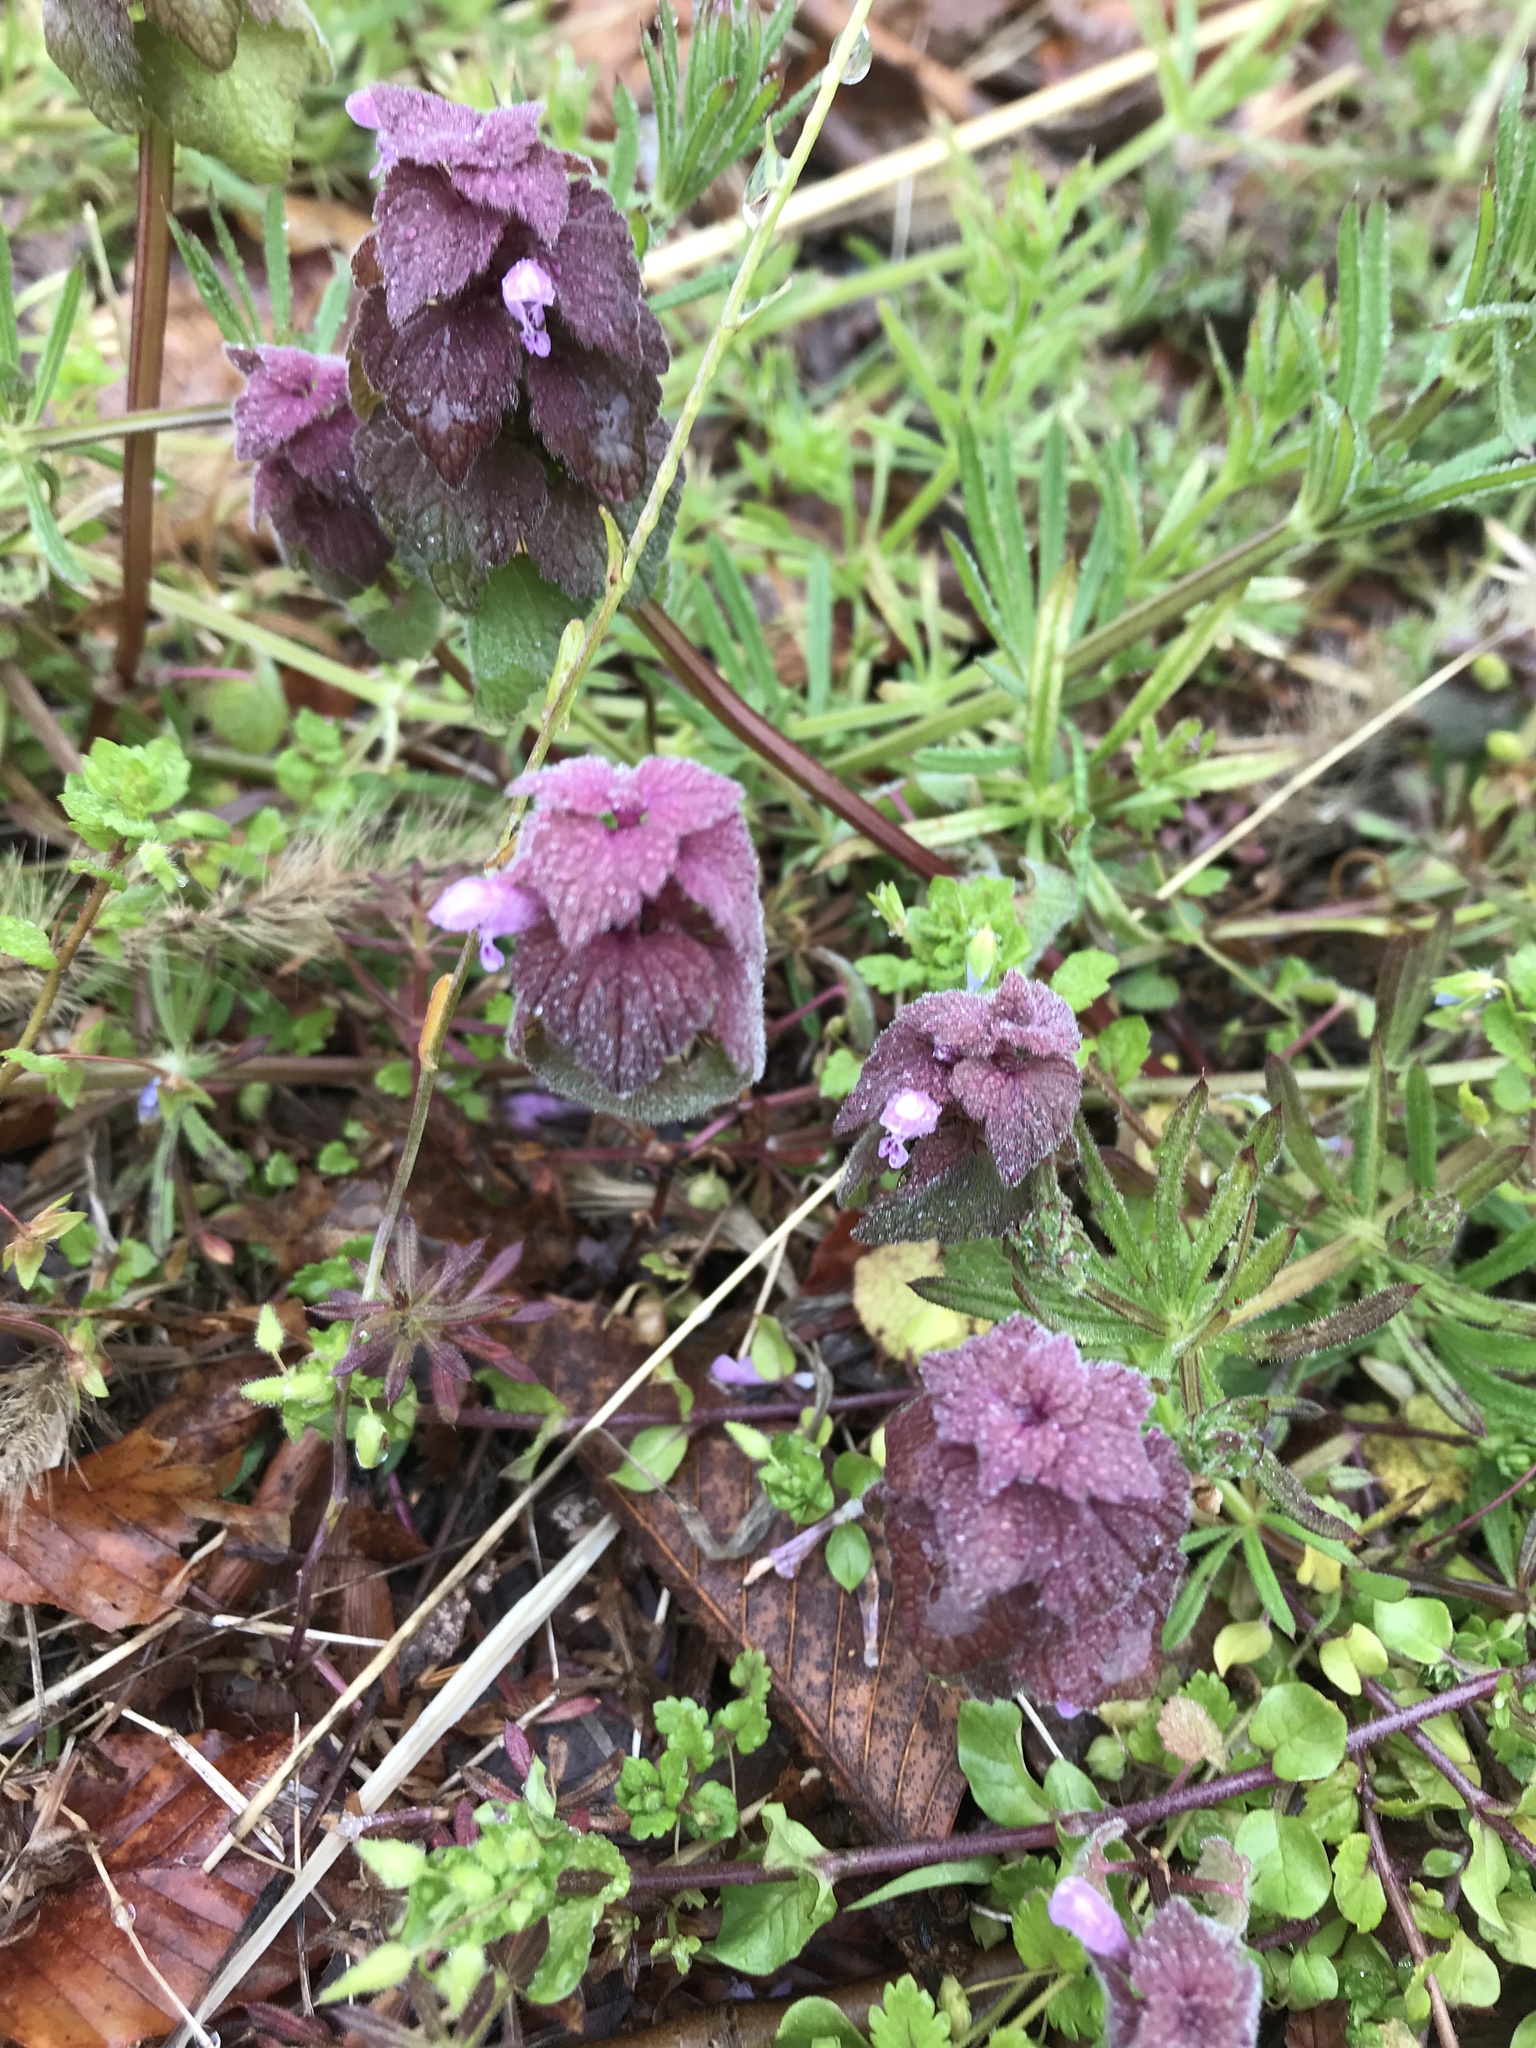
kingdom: Plantae
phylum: Tracheophyta
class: Magnoliopsida
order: Lamiales
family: Lamiaceae
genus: Lamium
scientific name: Lamium purpureum
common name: Red dead-nettle
